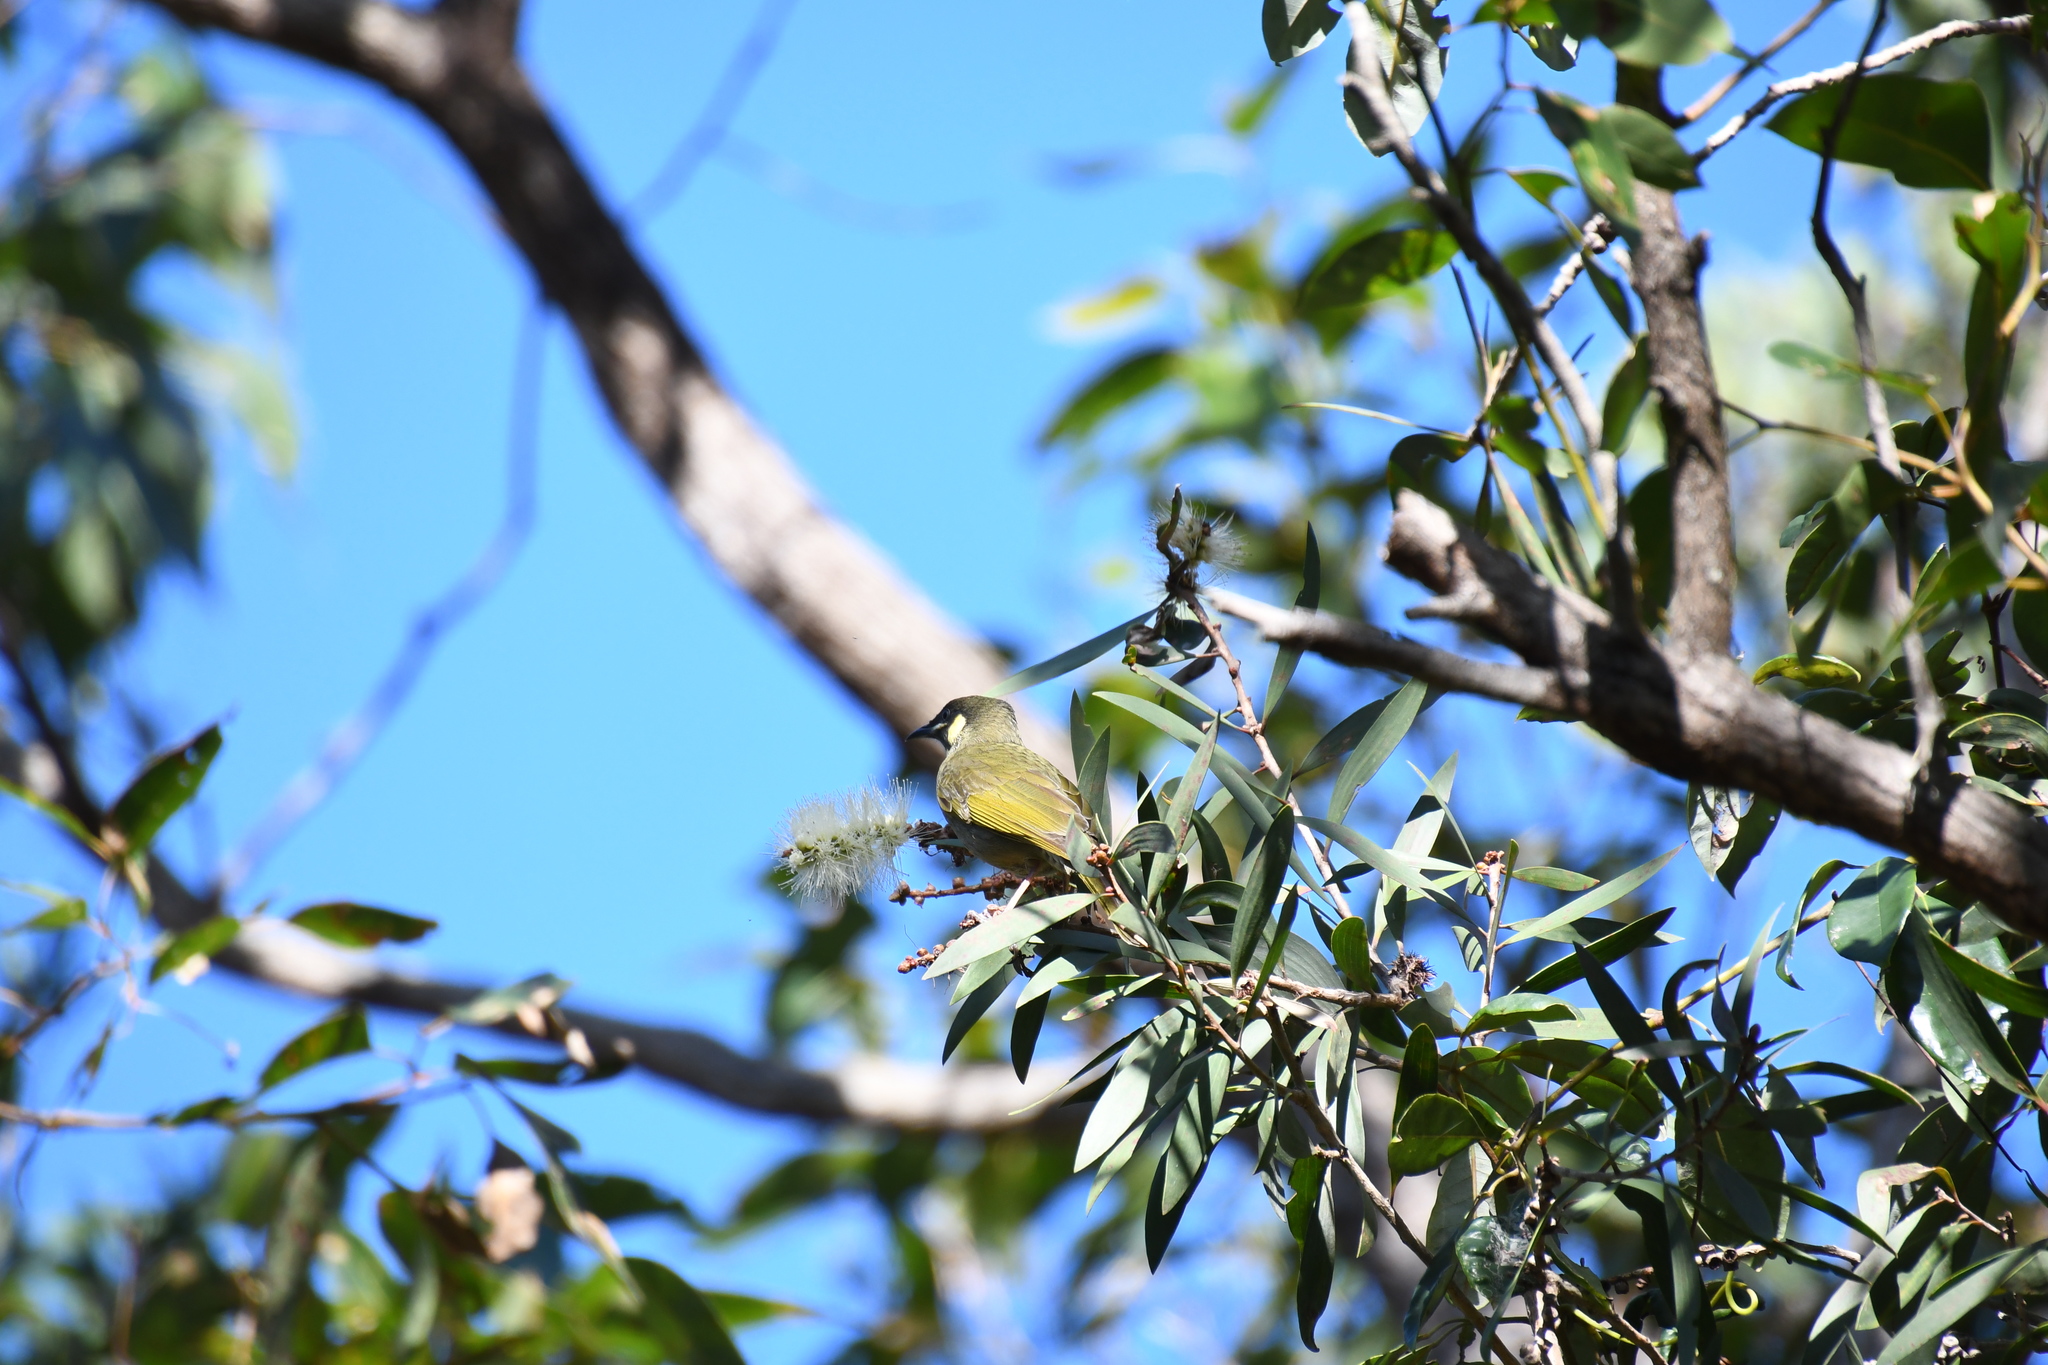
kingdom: Animalia
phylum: Chordata
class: Aves
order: Passeriformes
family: Meliphagidae
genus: Meliphaga
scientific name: Meliphaga lewinii
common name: Lewin's honeyeater
